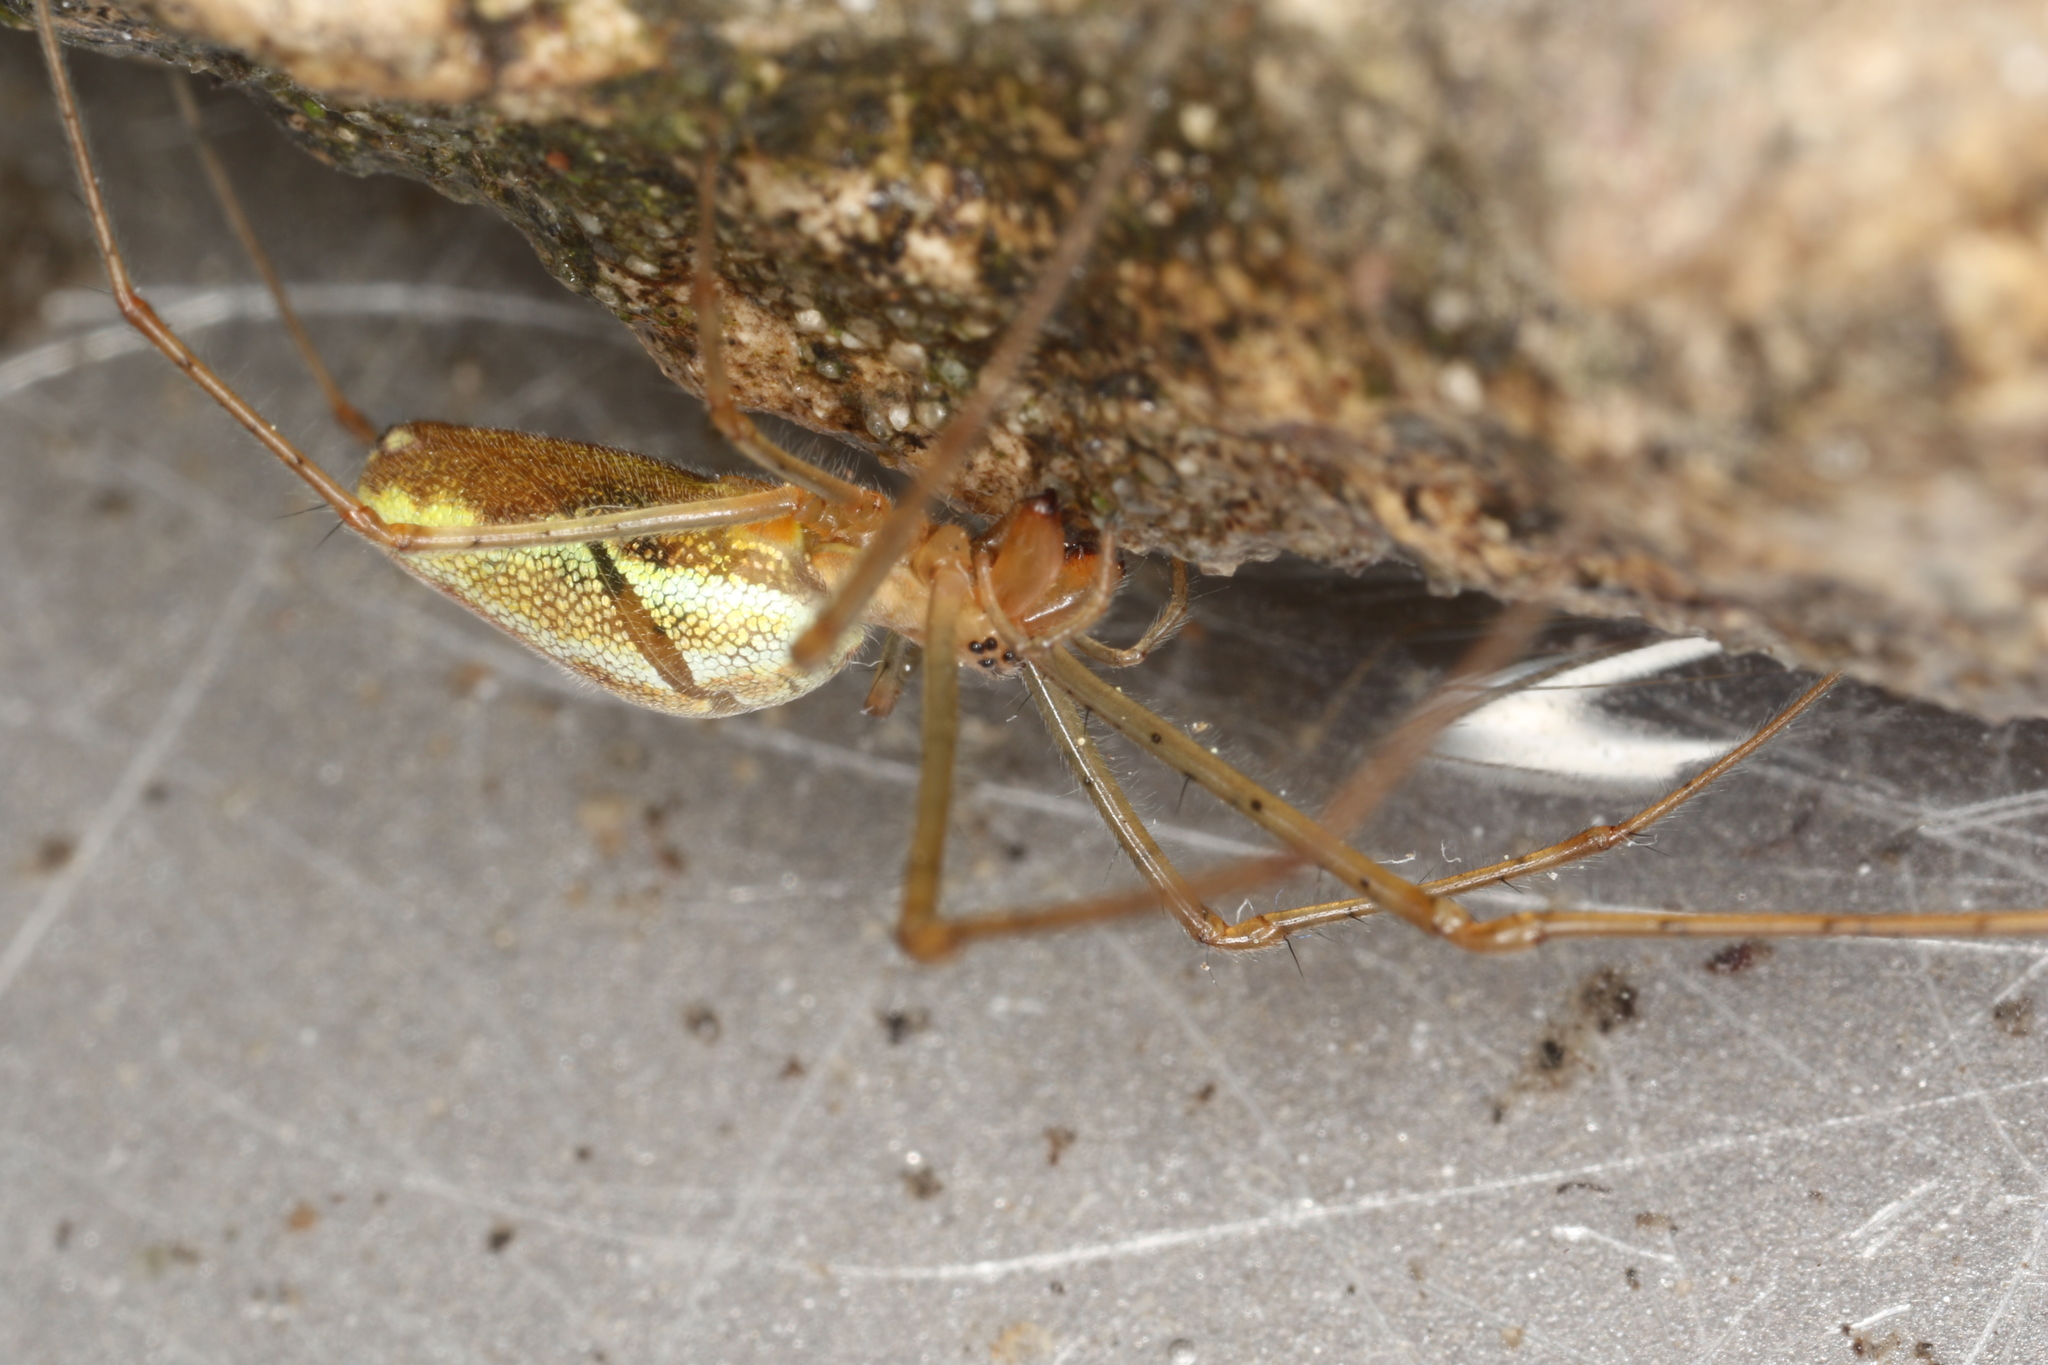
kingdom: Animalia
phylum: Arthropoda
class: Arachnida
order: Araneae
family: Tetragnathidae
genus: Tetragnatha
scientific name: Tetragnatha montana
